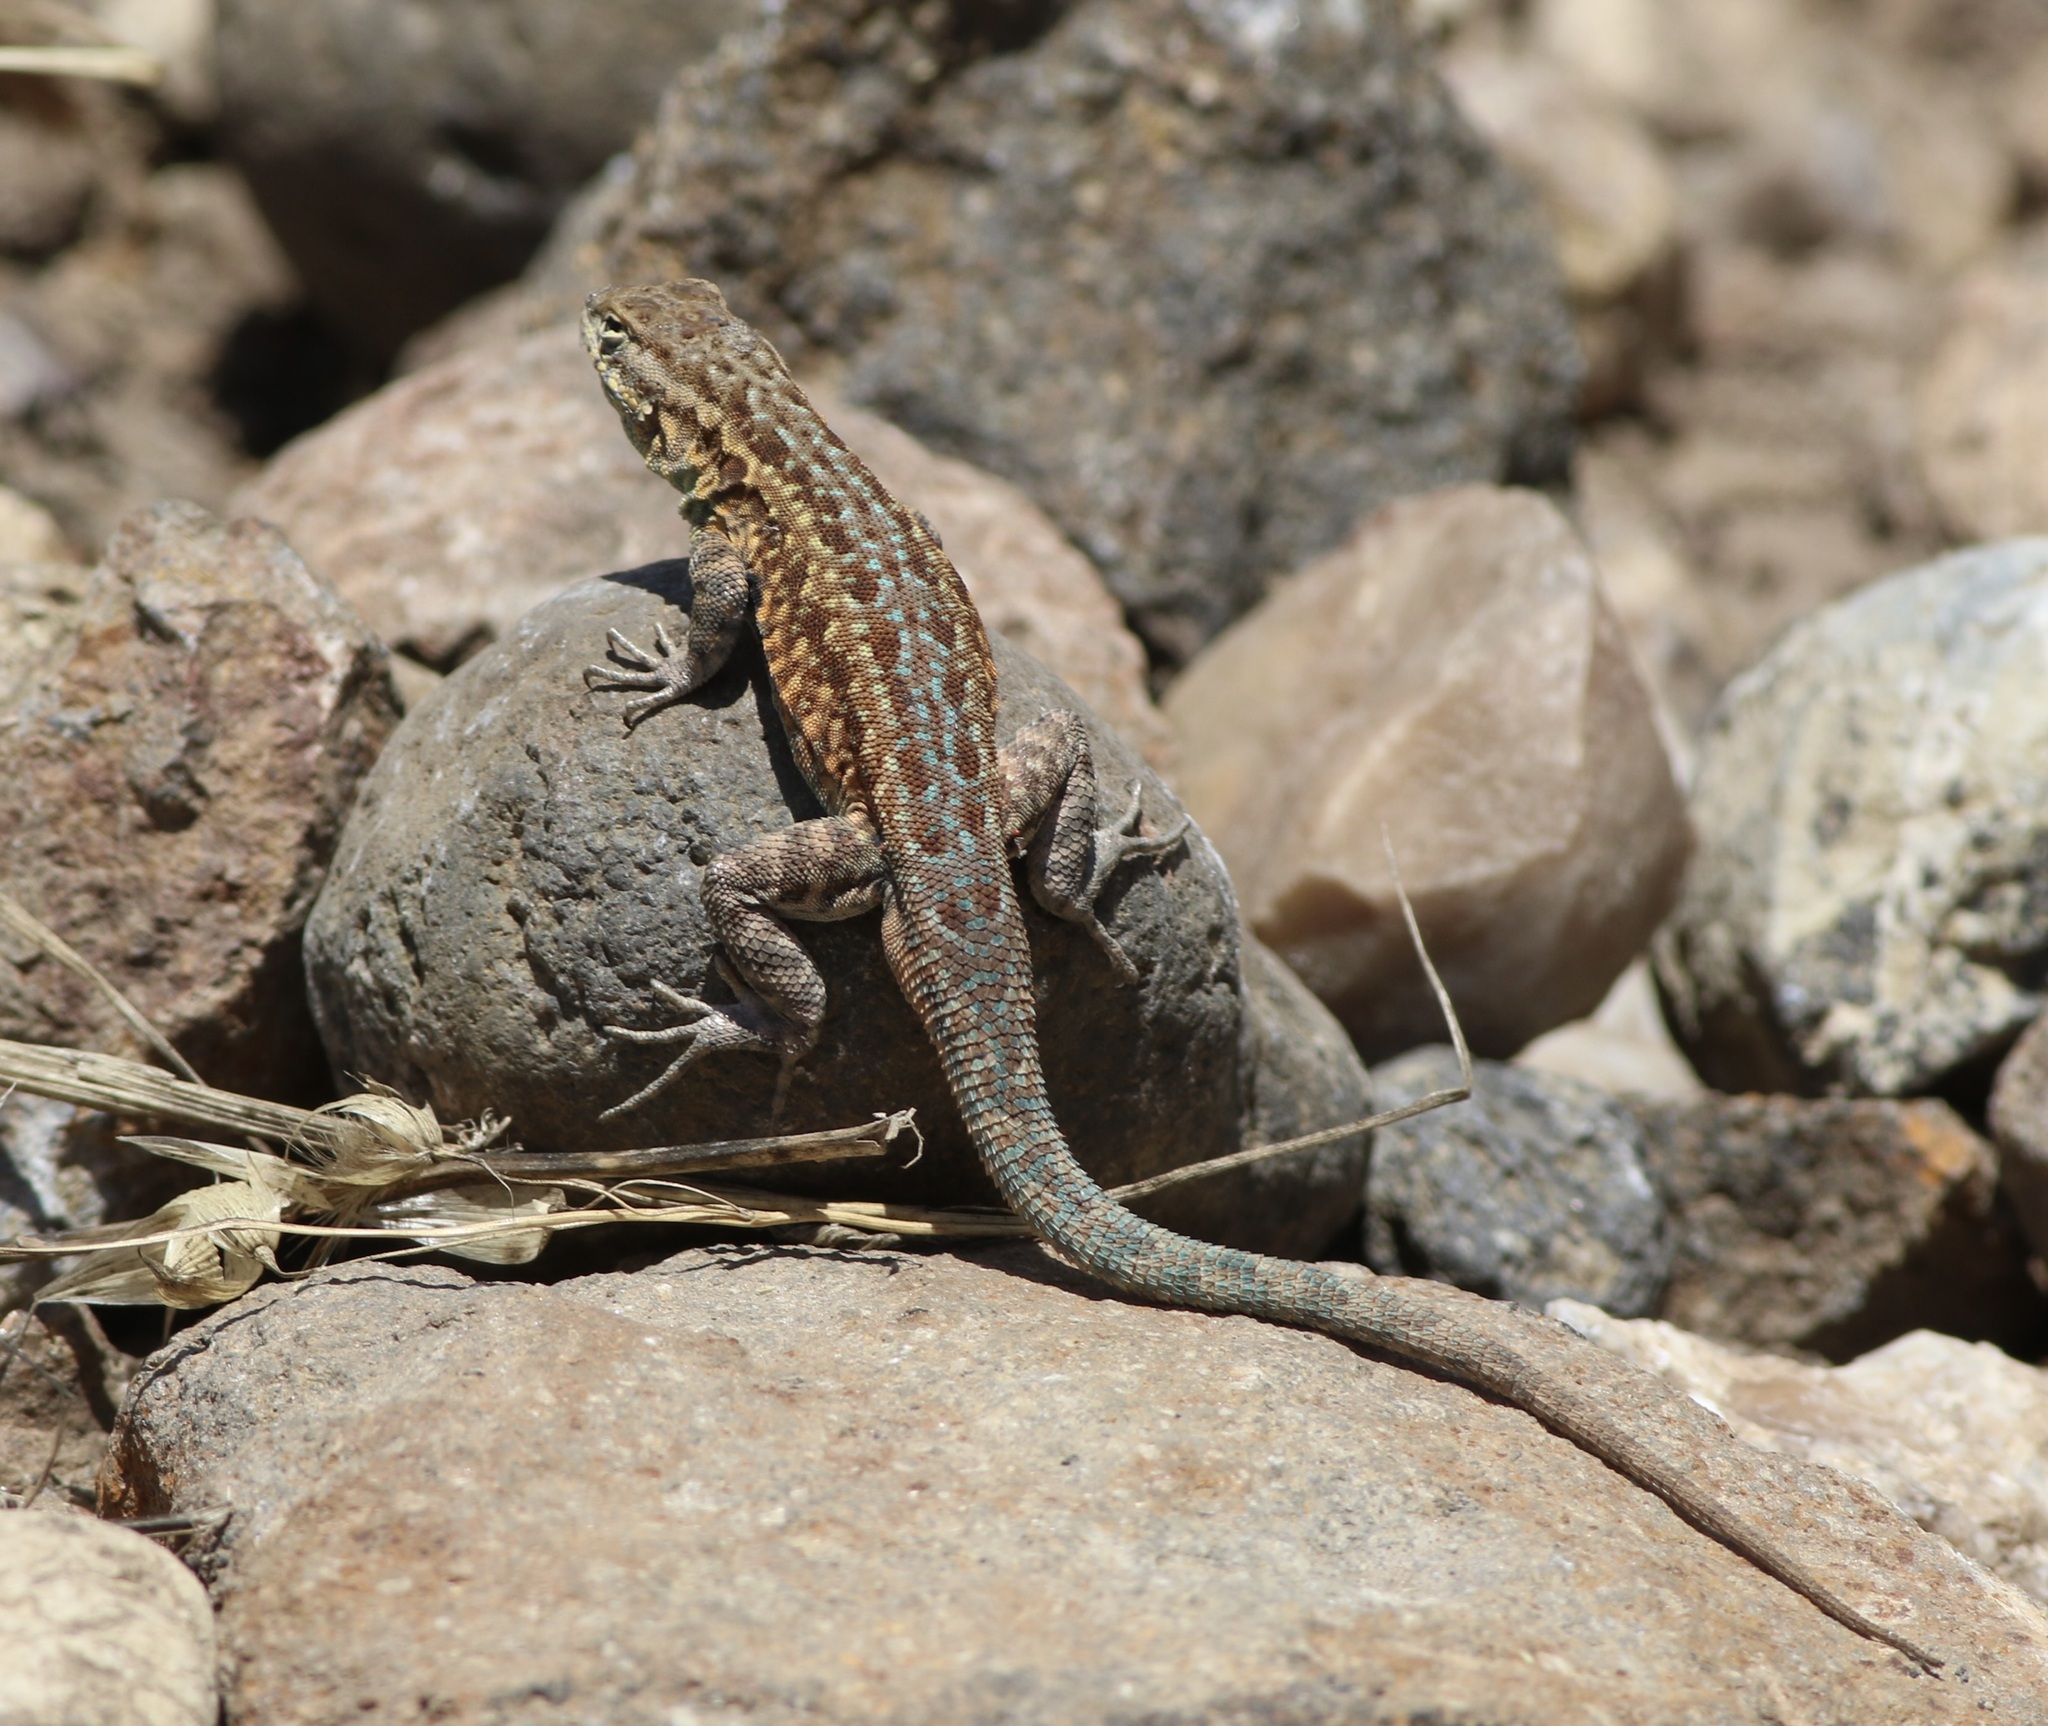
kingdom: Animalia
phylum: Chordata
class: Squamata
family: Phrynosomatidae
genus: Uta
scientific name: Uta stansburiana
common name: Side-blotched lizard
